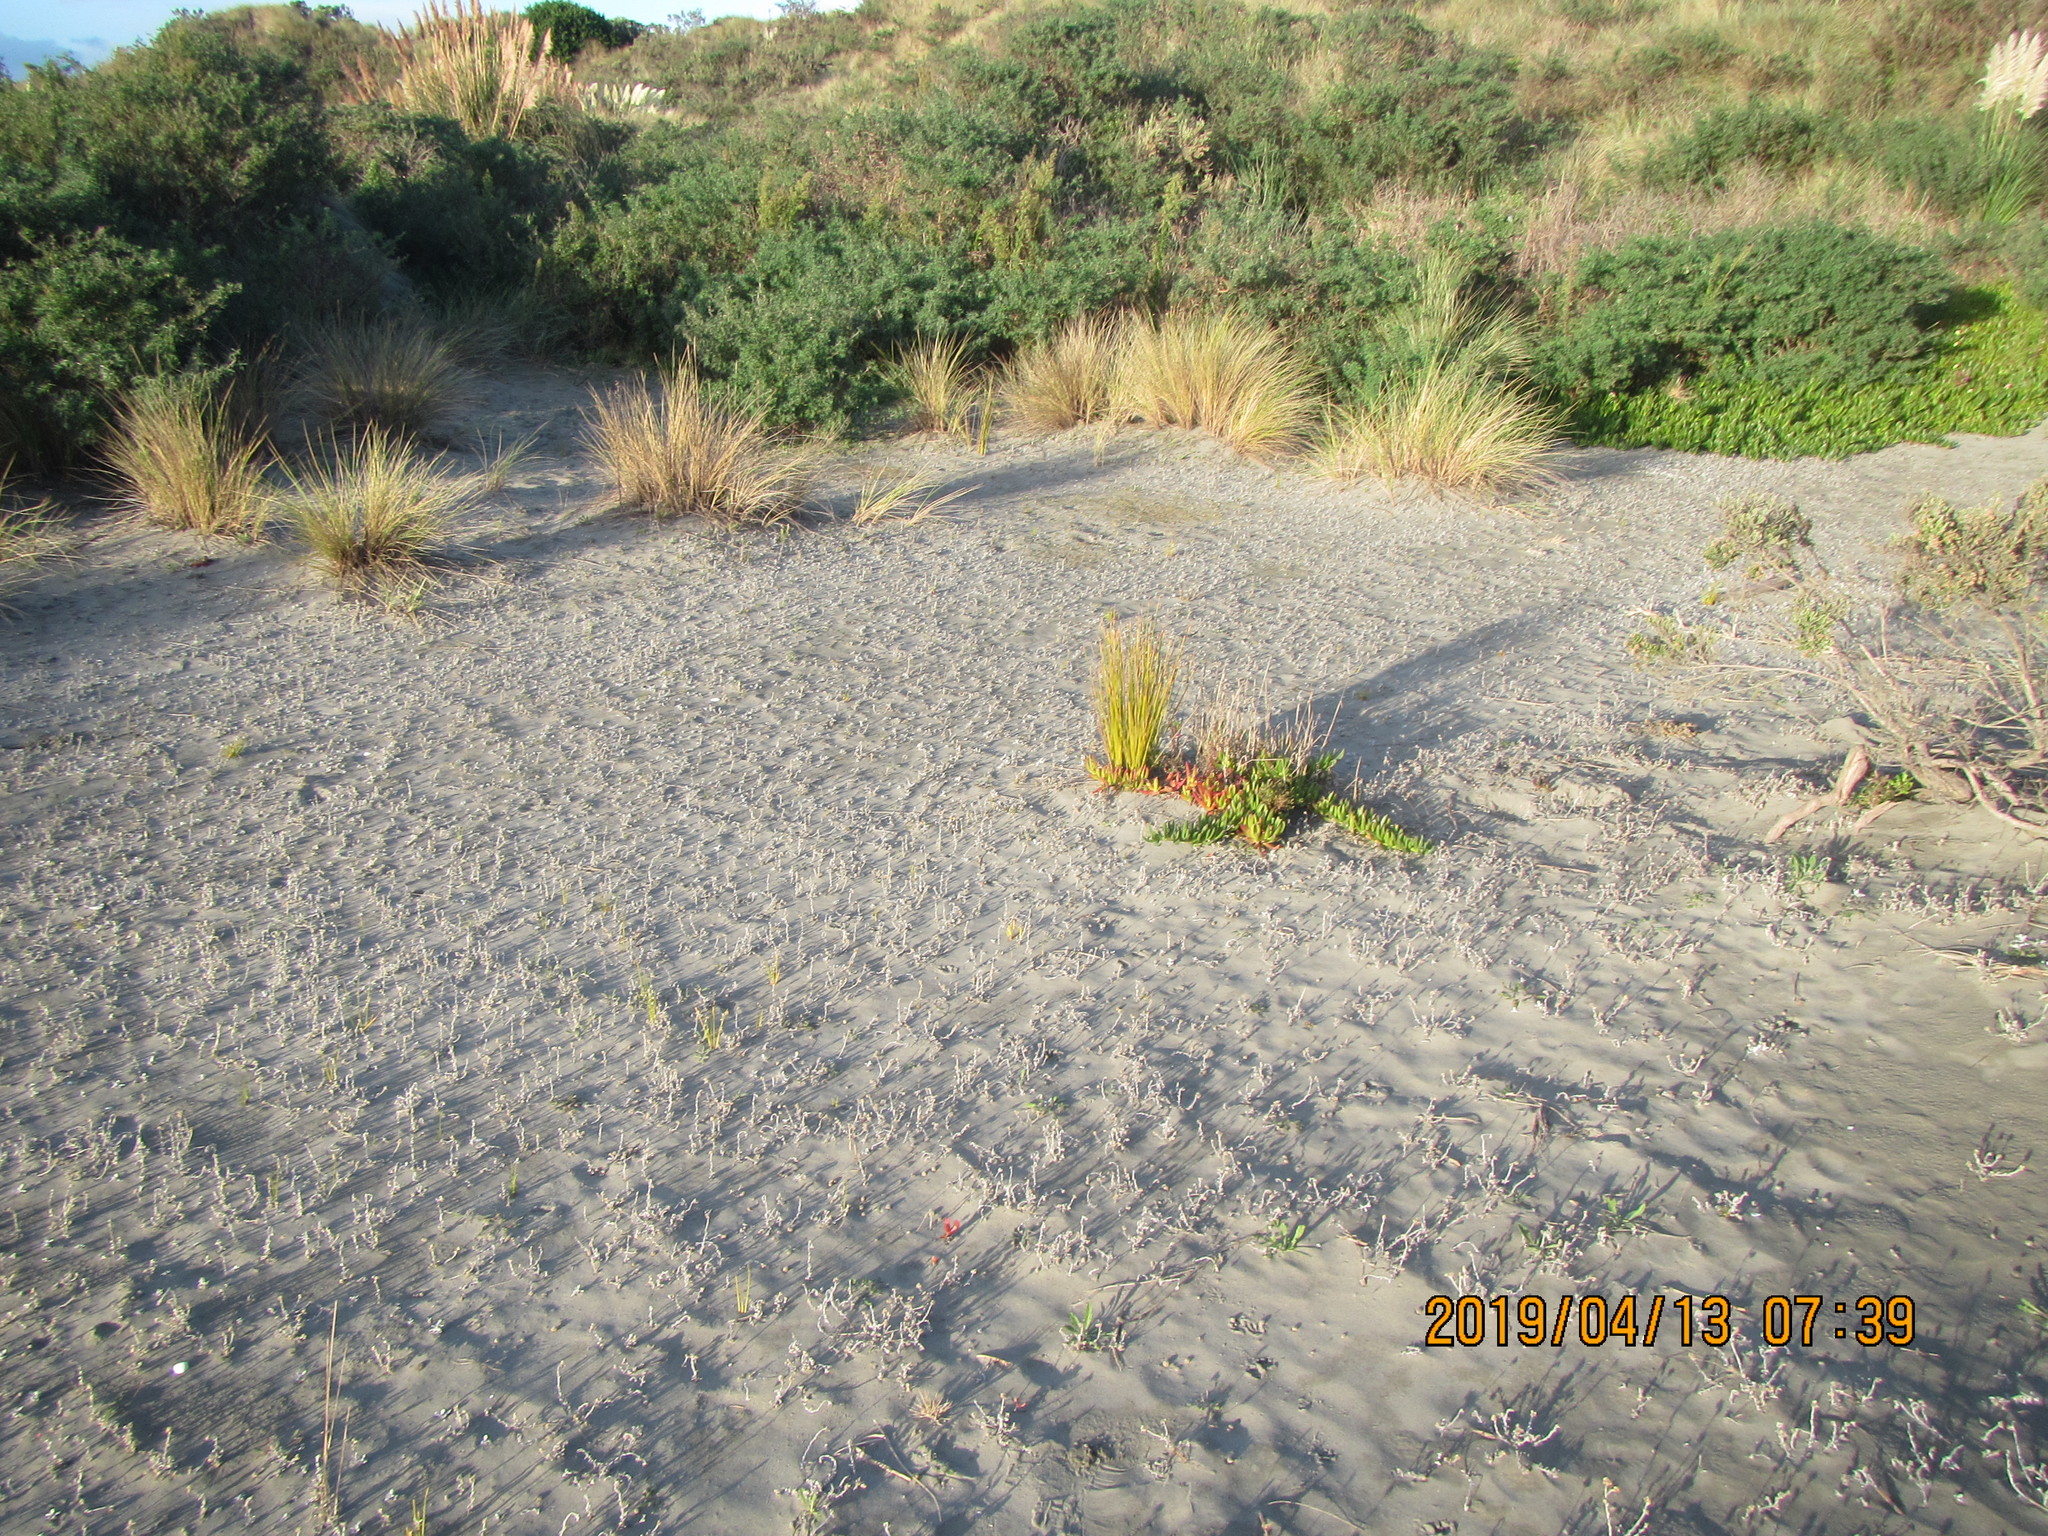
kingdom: Plantae
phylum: Tracheophyta
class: Magnoliopsida
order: Asterales
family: Asteraceae
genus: Helichrysum
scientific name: Helichrysum luteoalbum
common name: Daisy
